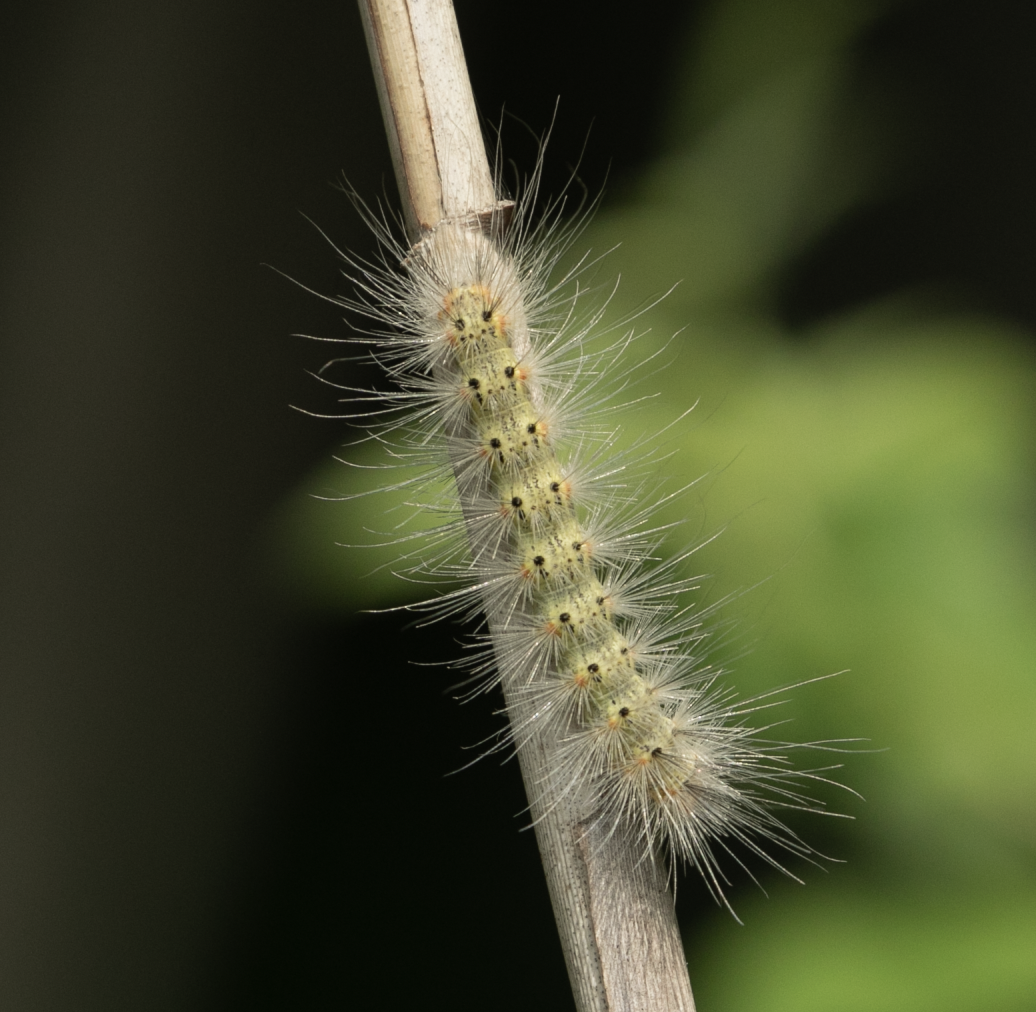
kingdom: Animalia
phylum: Arthropoda
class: Insecta
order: Lepidoptera
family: Erebidae
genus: Hyphantria
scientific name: Hyphantria cunea
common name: American white moth
